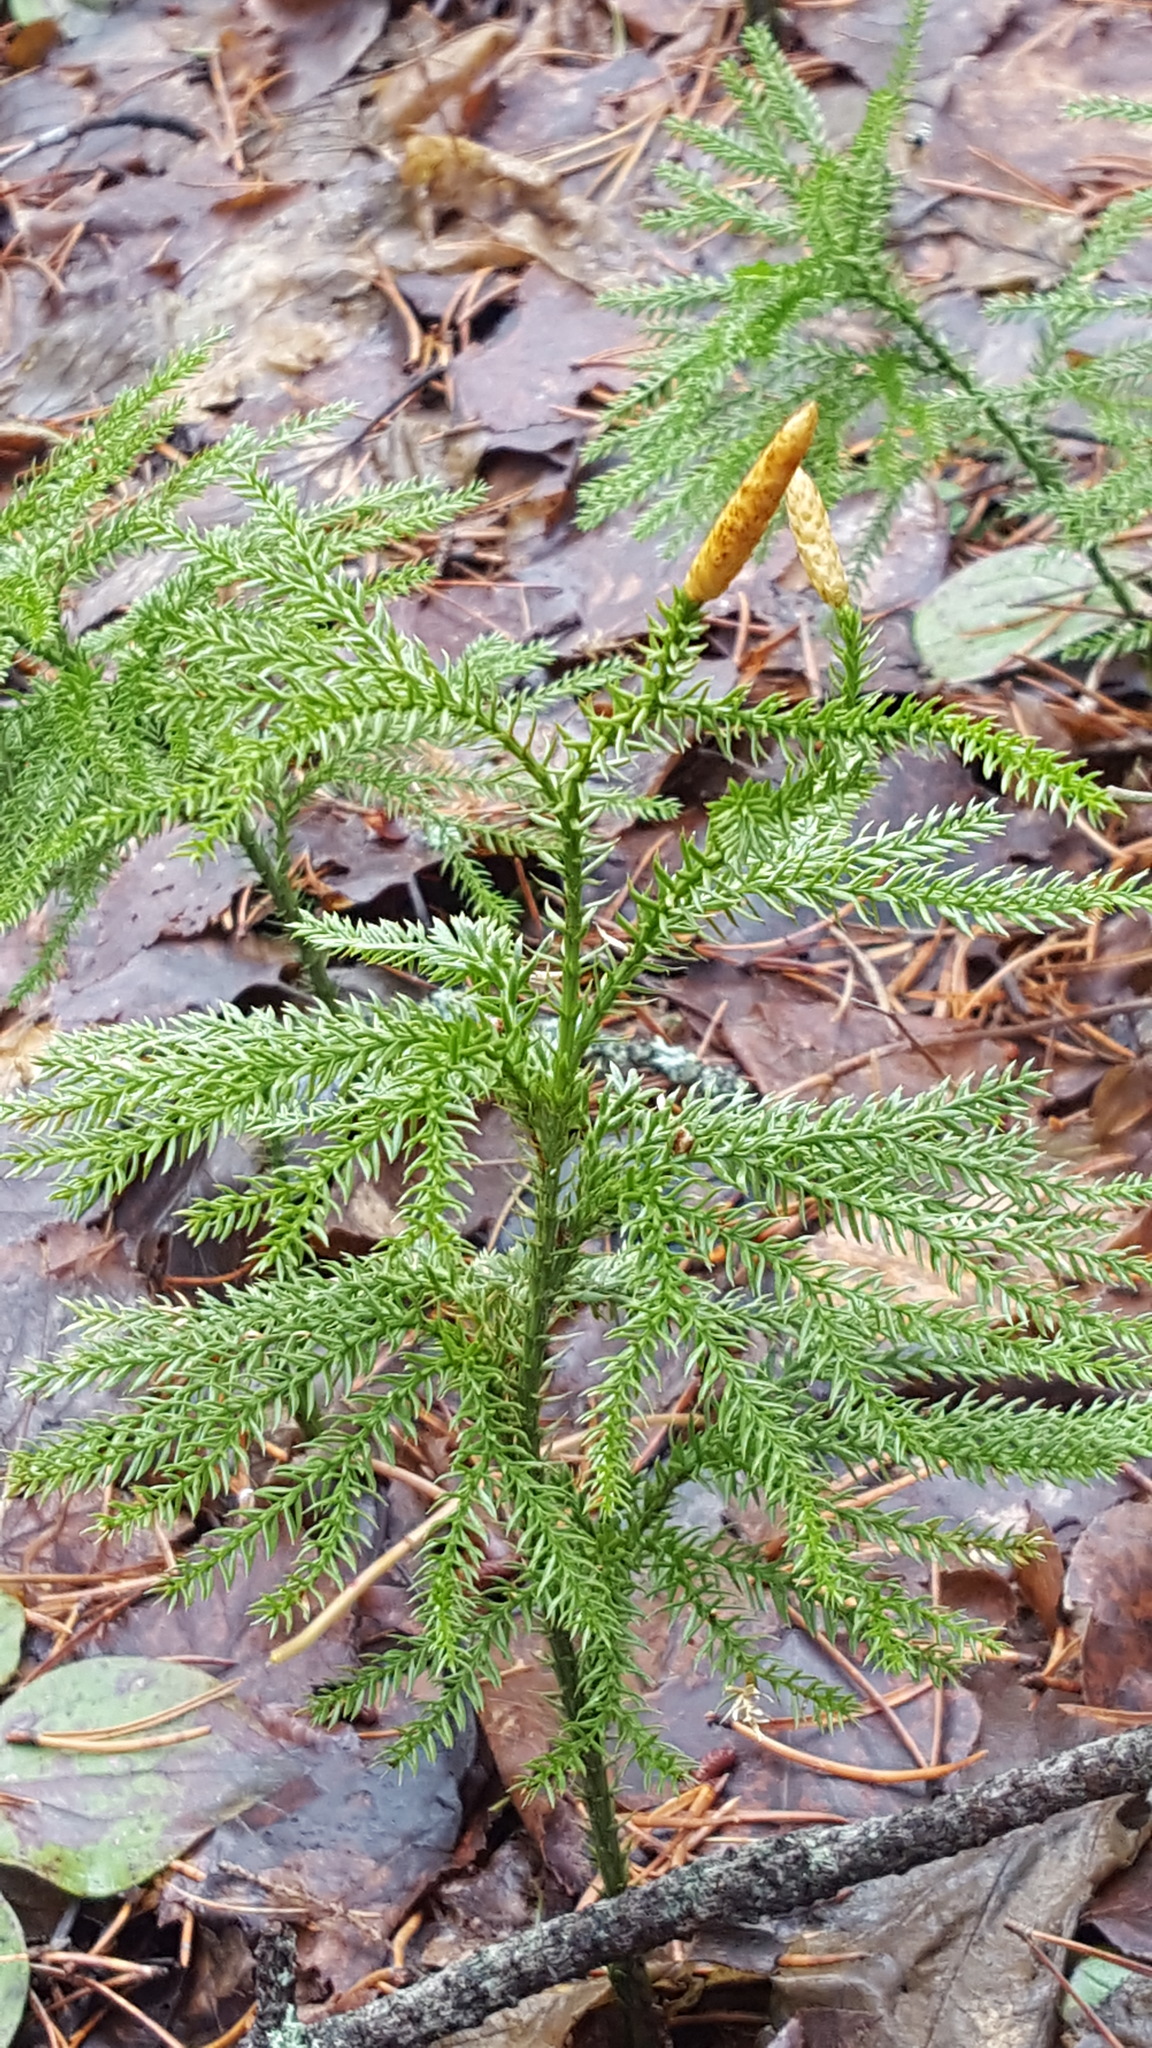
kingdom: Plantae
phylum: Tracheophyta
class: Lycopodiopsida
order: Lycopodiales
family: Lycopodiaceae
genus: Dendrolycopodium
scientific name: Dendrolycopodium dendroideum
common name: Northern tree-clubmoss
